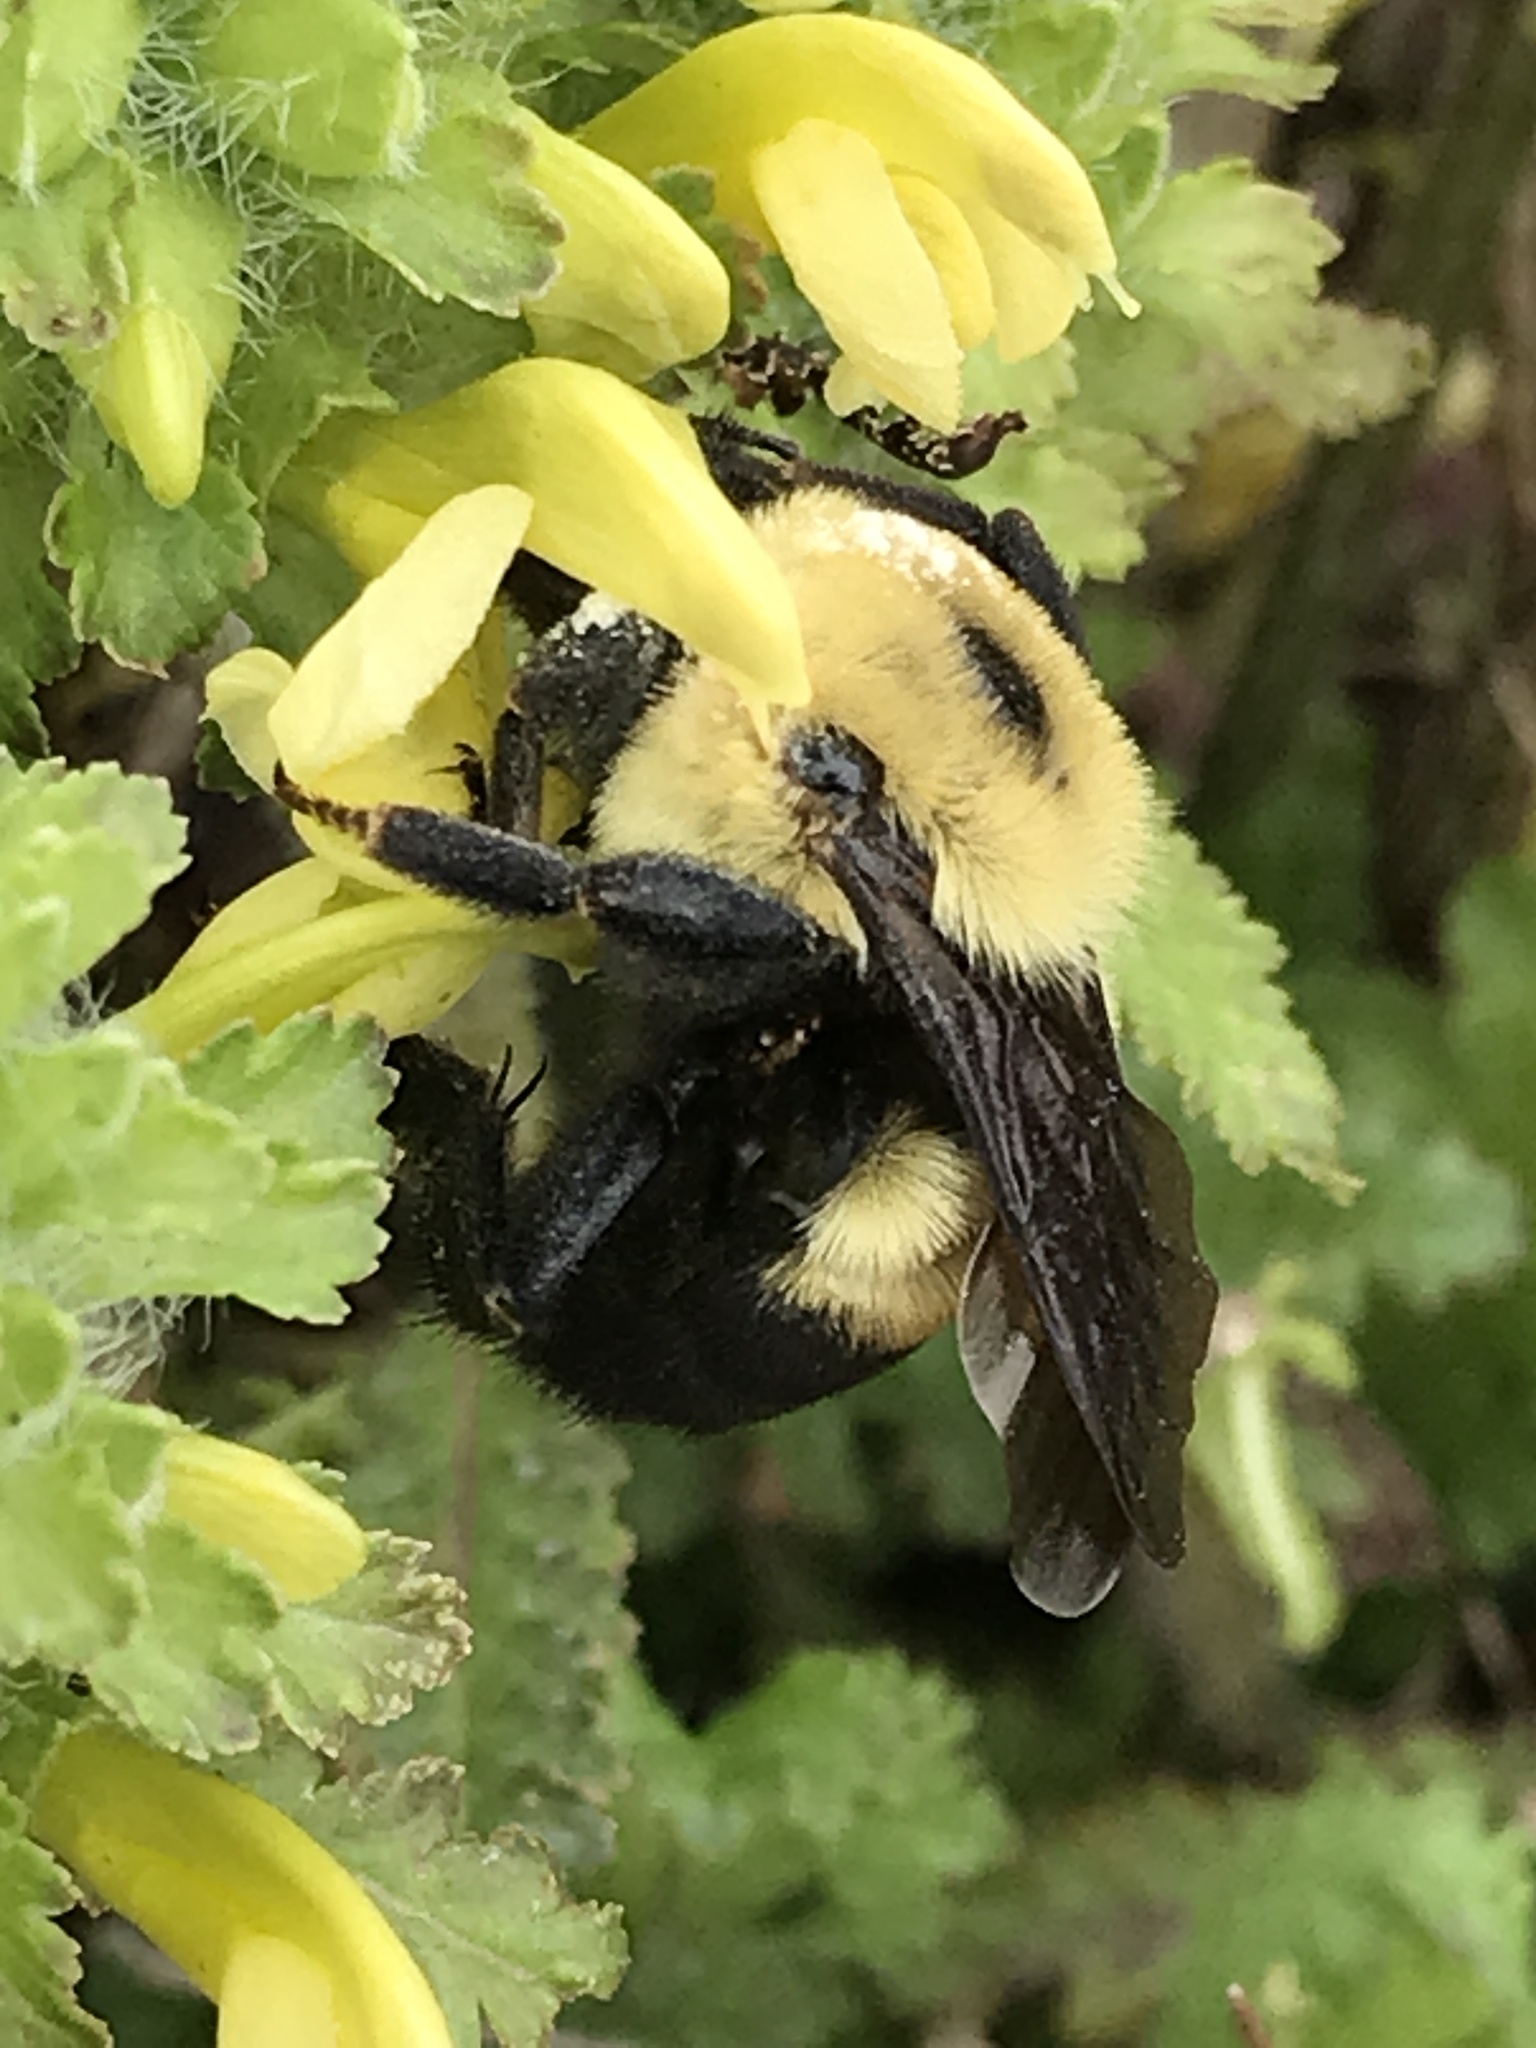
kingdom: Animalia
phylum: Arthropoda
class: Insecta
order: Hymenoptera
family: Apidae
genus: Bombus
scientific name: Bombus griseocollis
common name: Brown-belted bumble bee
